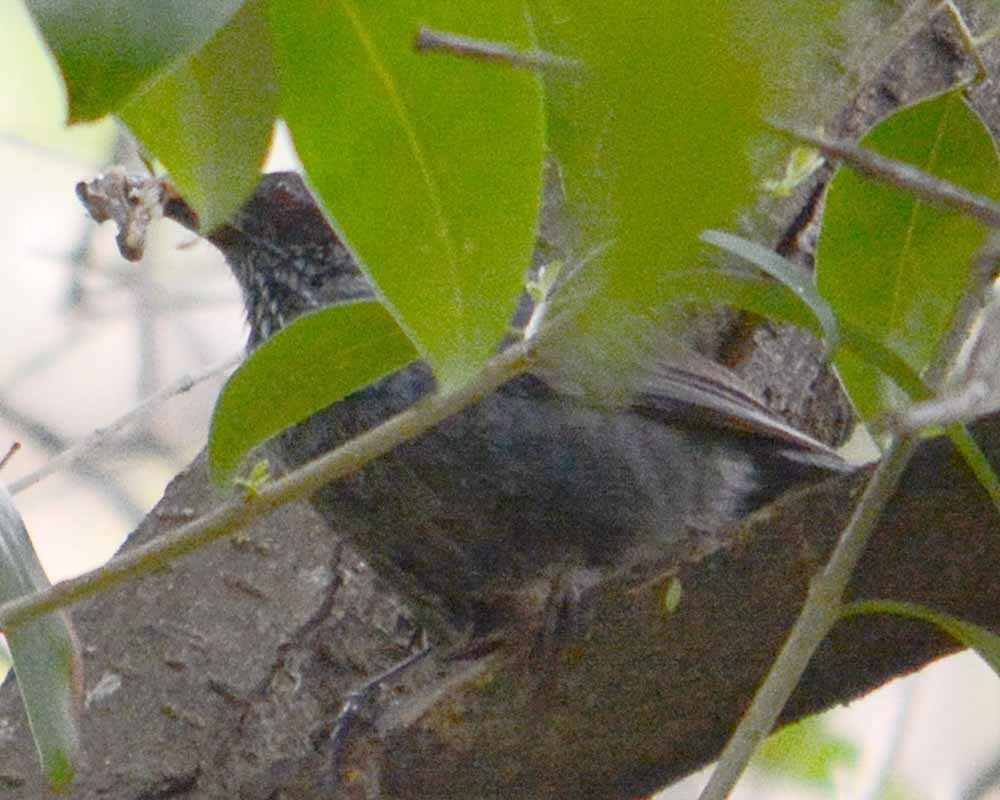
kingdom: Animalia
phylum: Chordata
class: Aves
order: Passeriformes
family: Mimidae
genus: Melanotis
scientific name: Melanotis caerulescens
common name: Blue mockingbird
